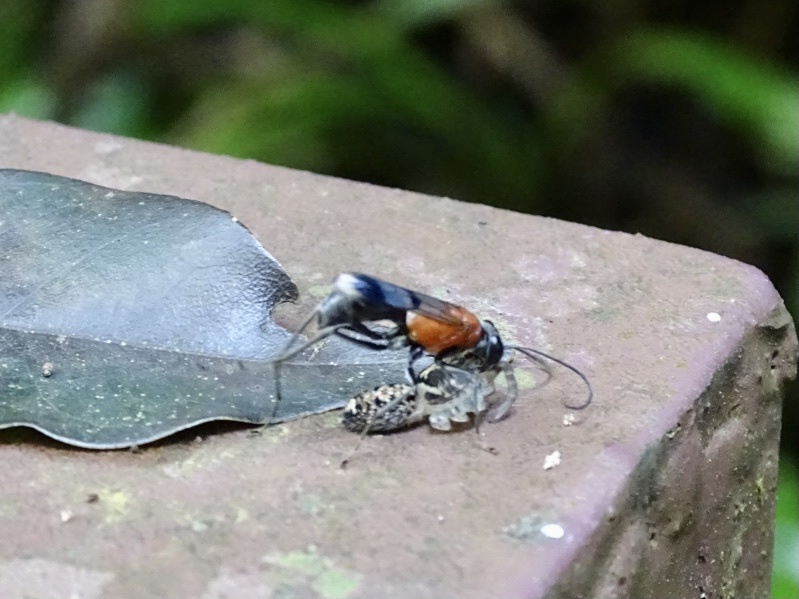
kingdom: Animalia
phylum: Arthropoda
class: Insecta
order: Hymenoptera
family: Pompilidae
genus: Auplopus
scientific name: Auplopus aegina
